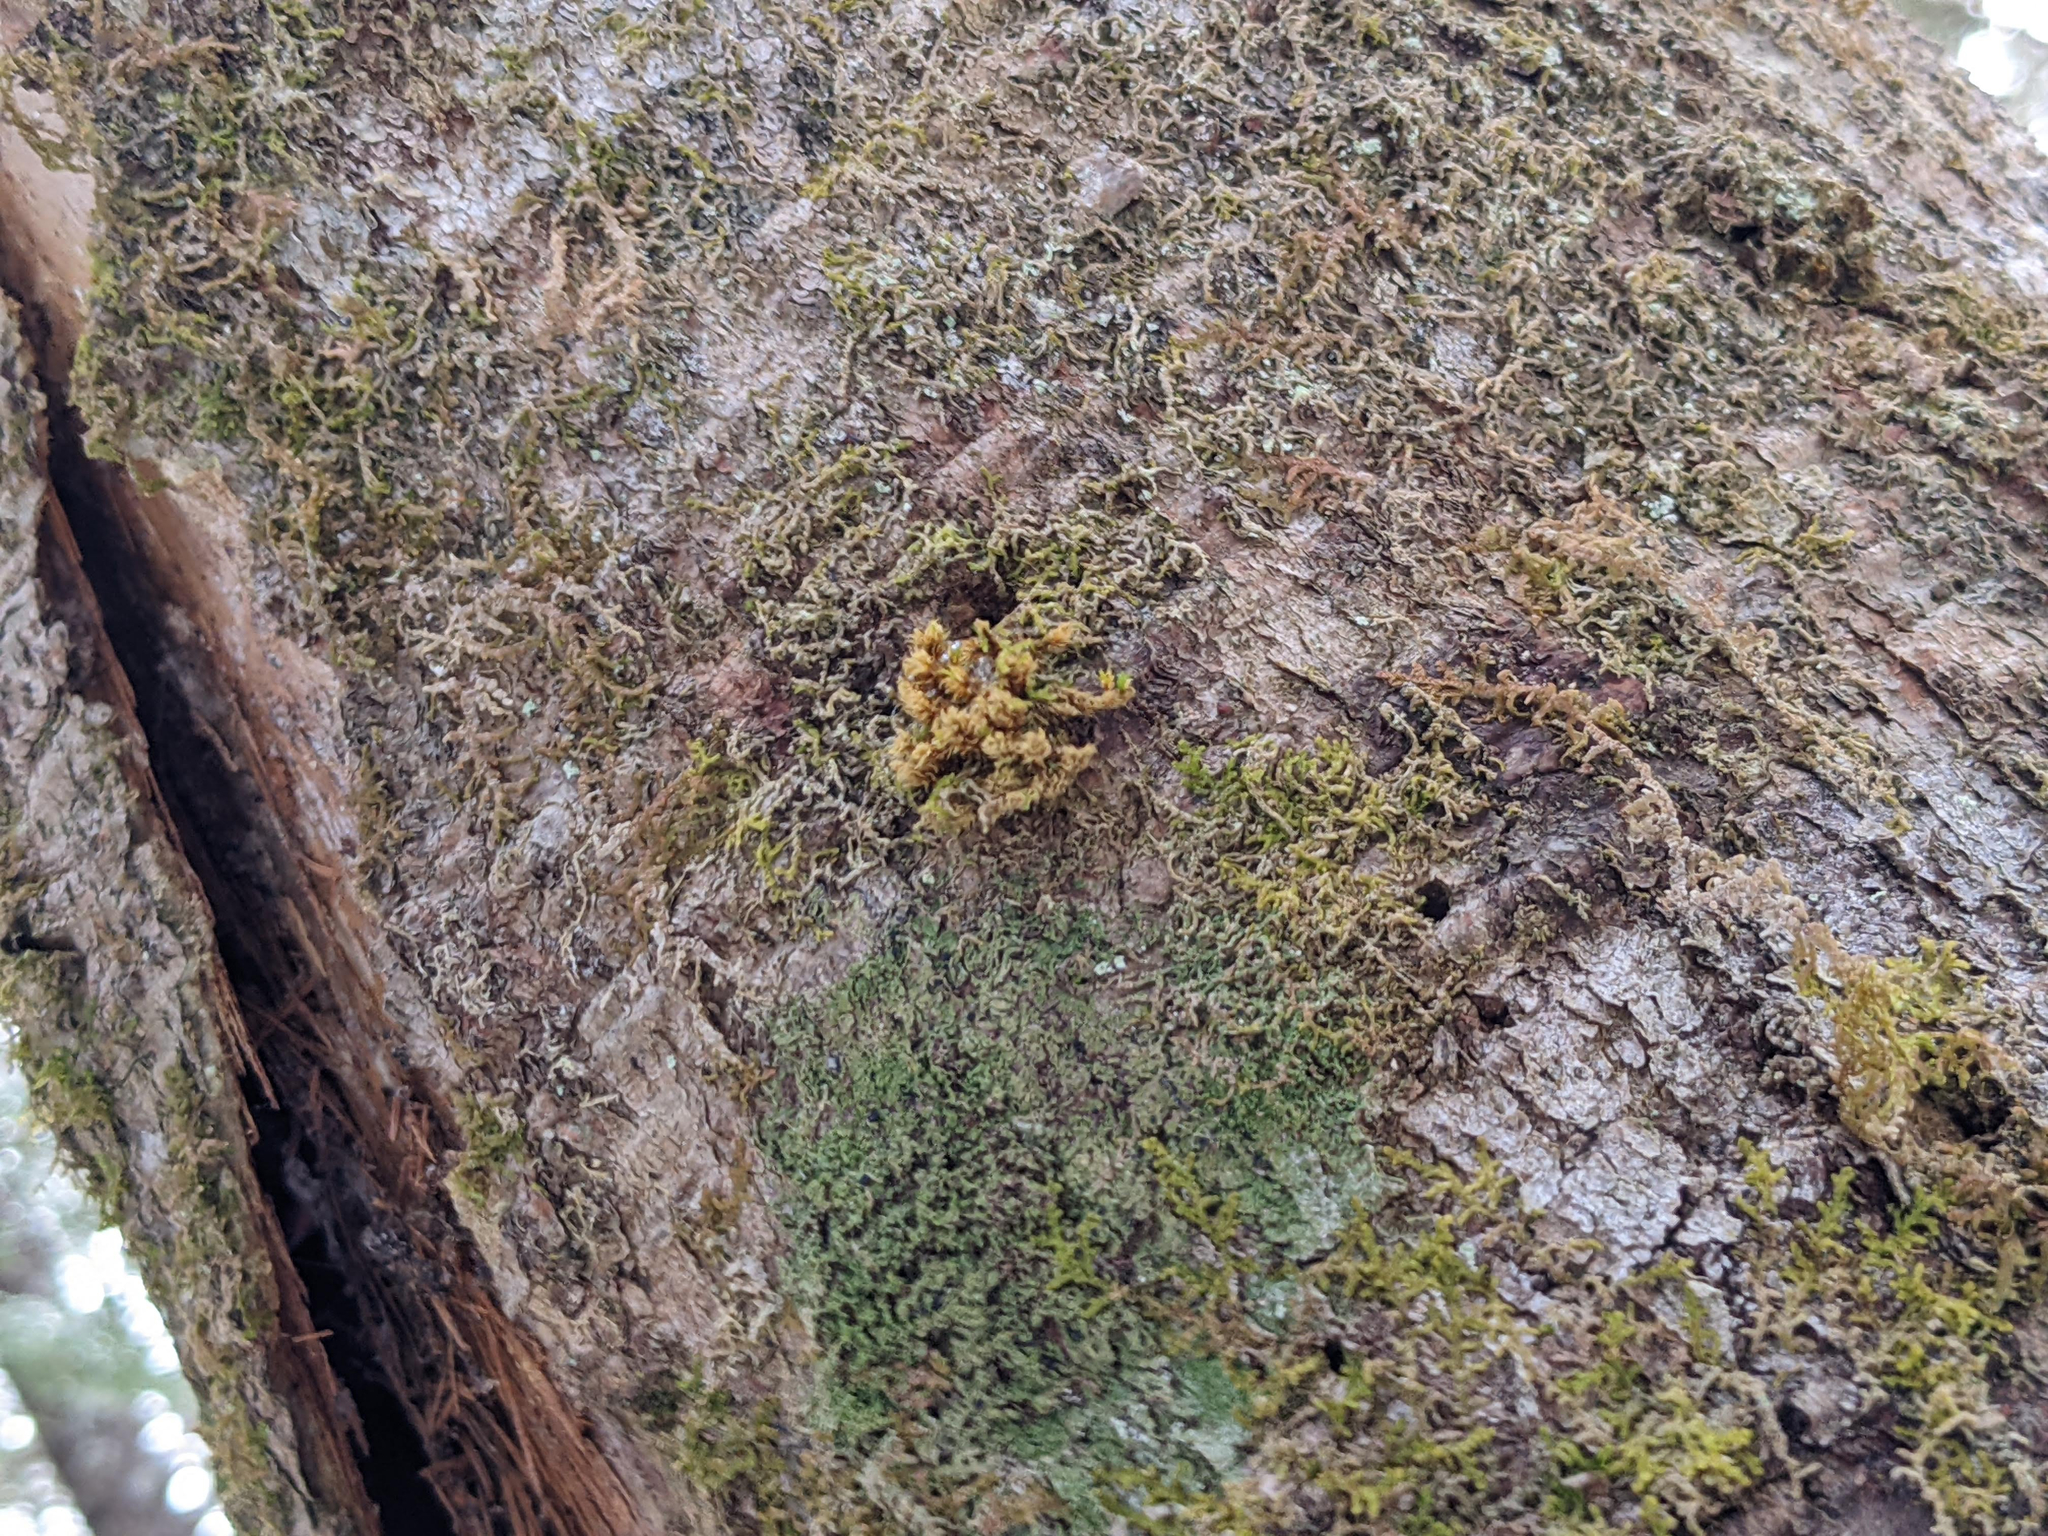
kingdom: Plantae
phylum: Bryophyta
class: Bryopsida
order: Orthotrichales
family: Orthotrichaceae
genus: Ulota
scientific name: Ulota crispa
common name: Crisped pincushion moss
